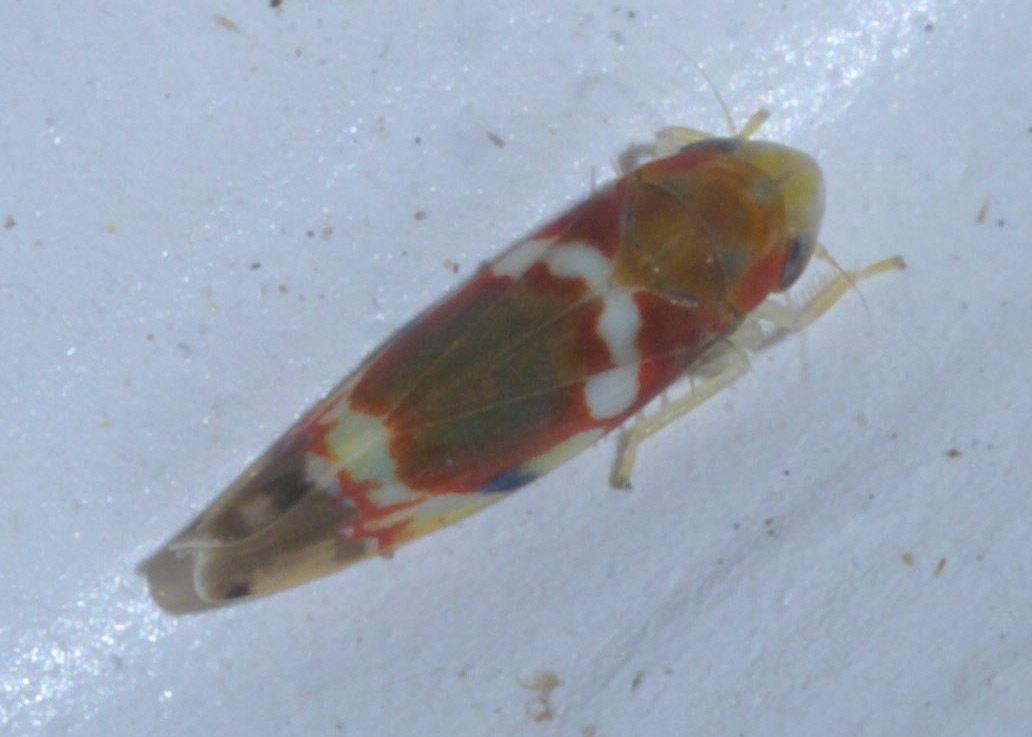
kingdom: Animalia
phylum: Arthropoda
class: Insecta
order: Hemiptera
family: Cicadellidae
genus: Erythroneura
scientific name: Erythroneura vitis
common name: Grapevine leafhopper
